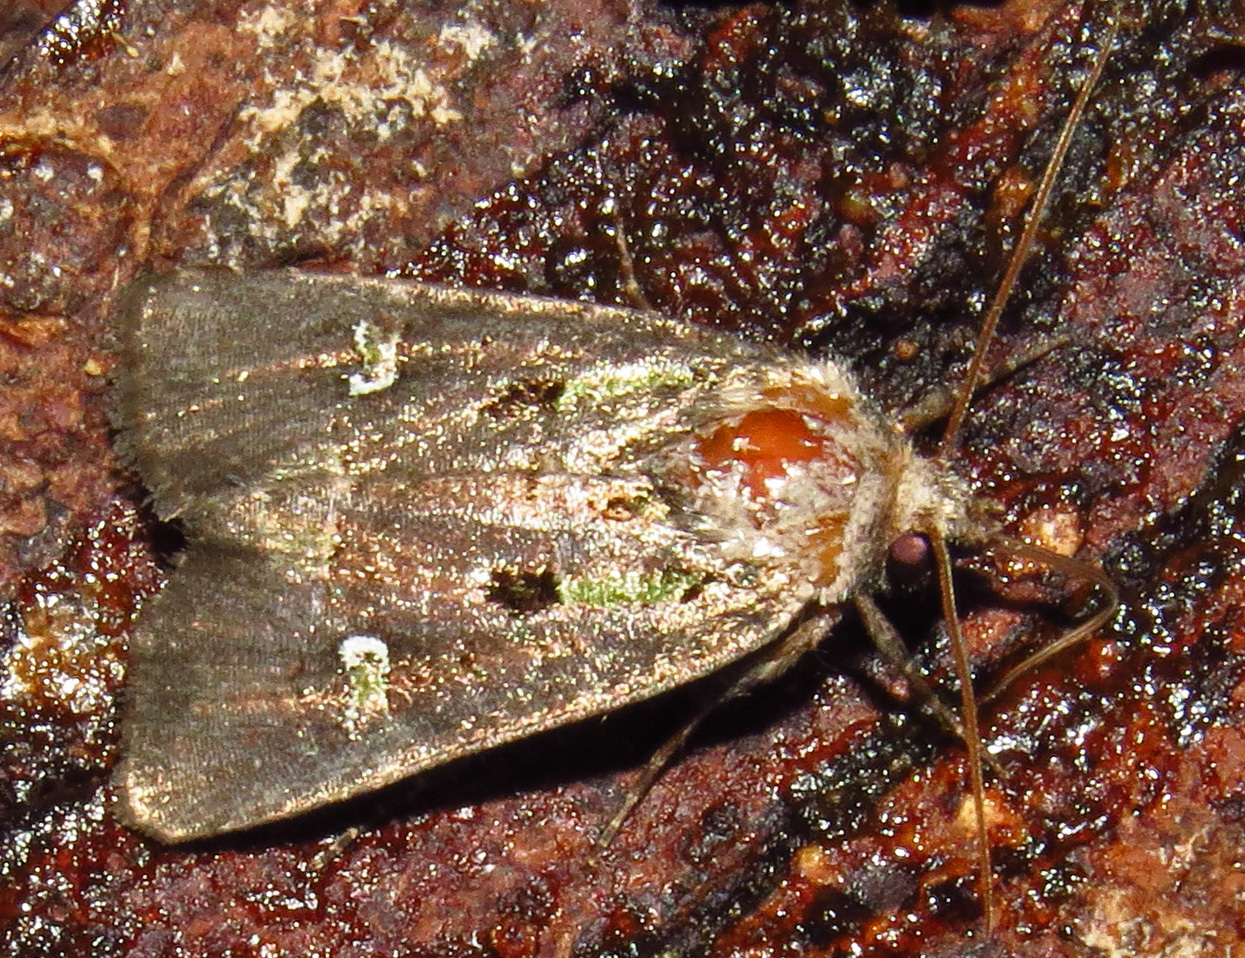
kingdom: Animalia
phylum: Arthropoda
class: Insecta
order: Lepidoptera
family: Noctuidae
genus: Lacinipolia
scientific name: Lacinipolia renigera
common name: Kidney-spotted minor
